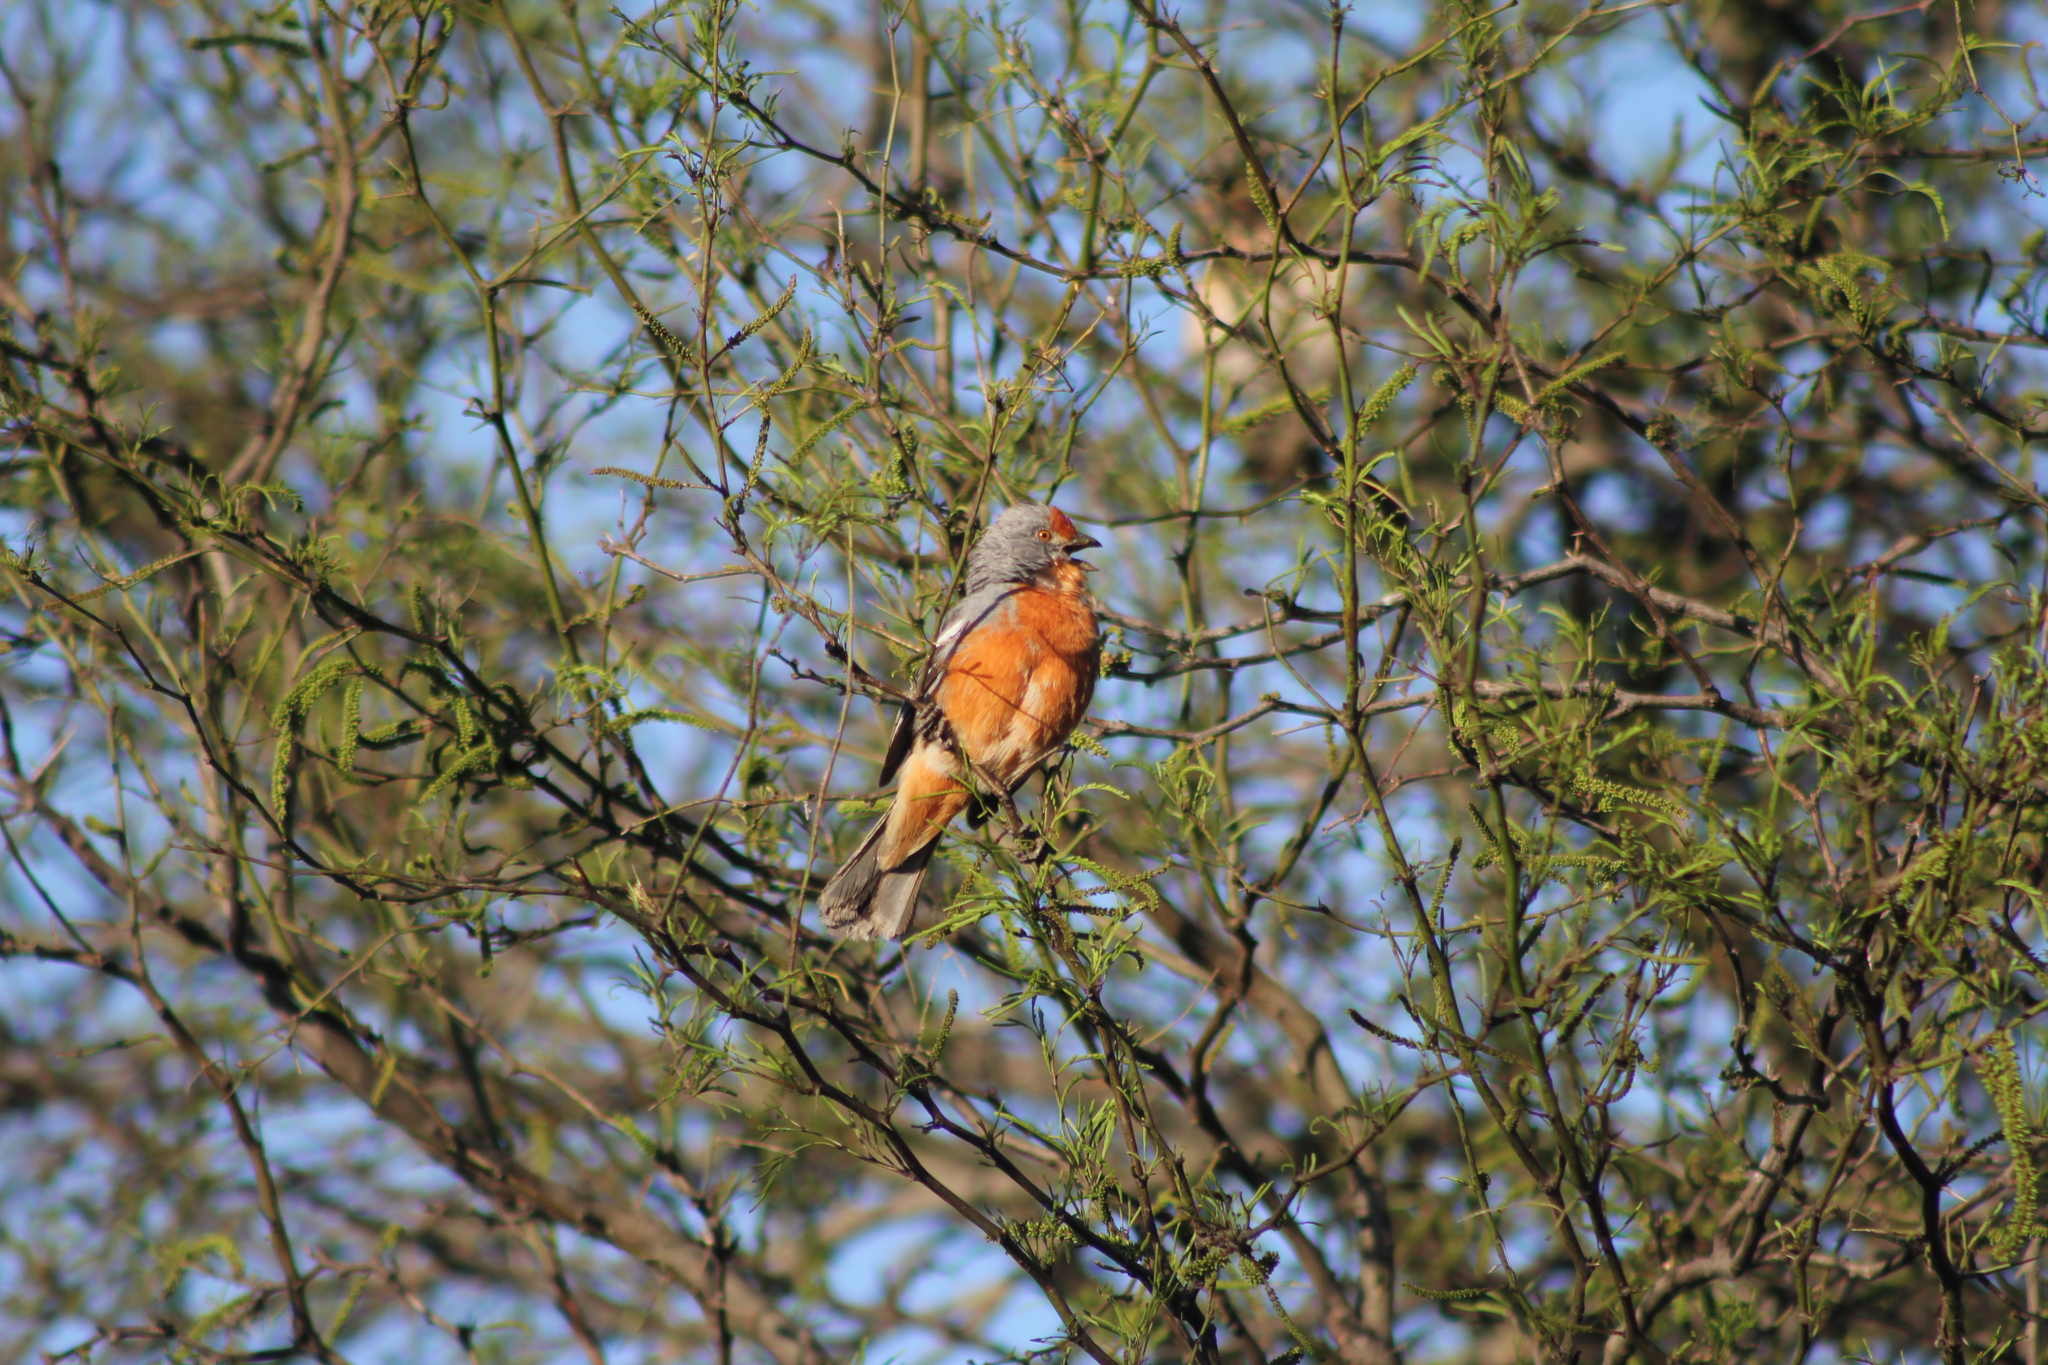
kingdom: Animalia
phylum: Chordata
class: Aves
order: Passeriformes
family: Cotingidae
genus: Phytotoma
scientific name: Phytotoma rutila
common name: White-tipped plantcutter
